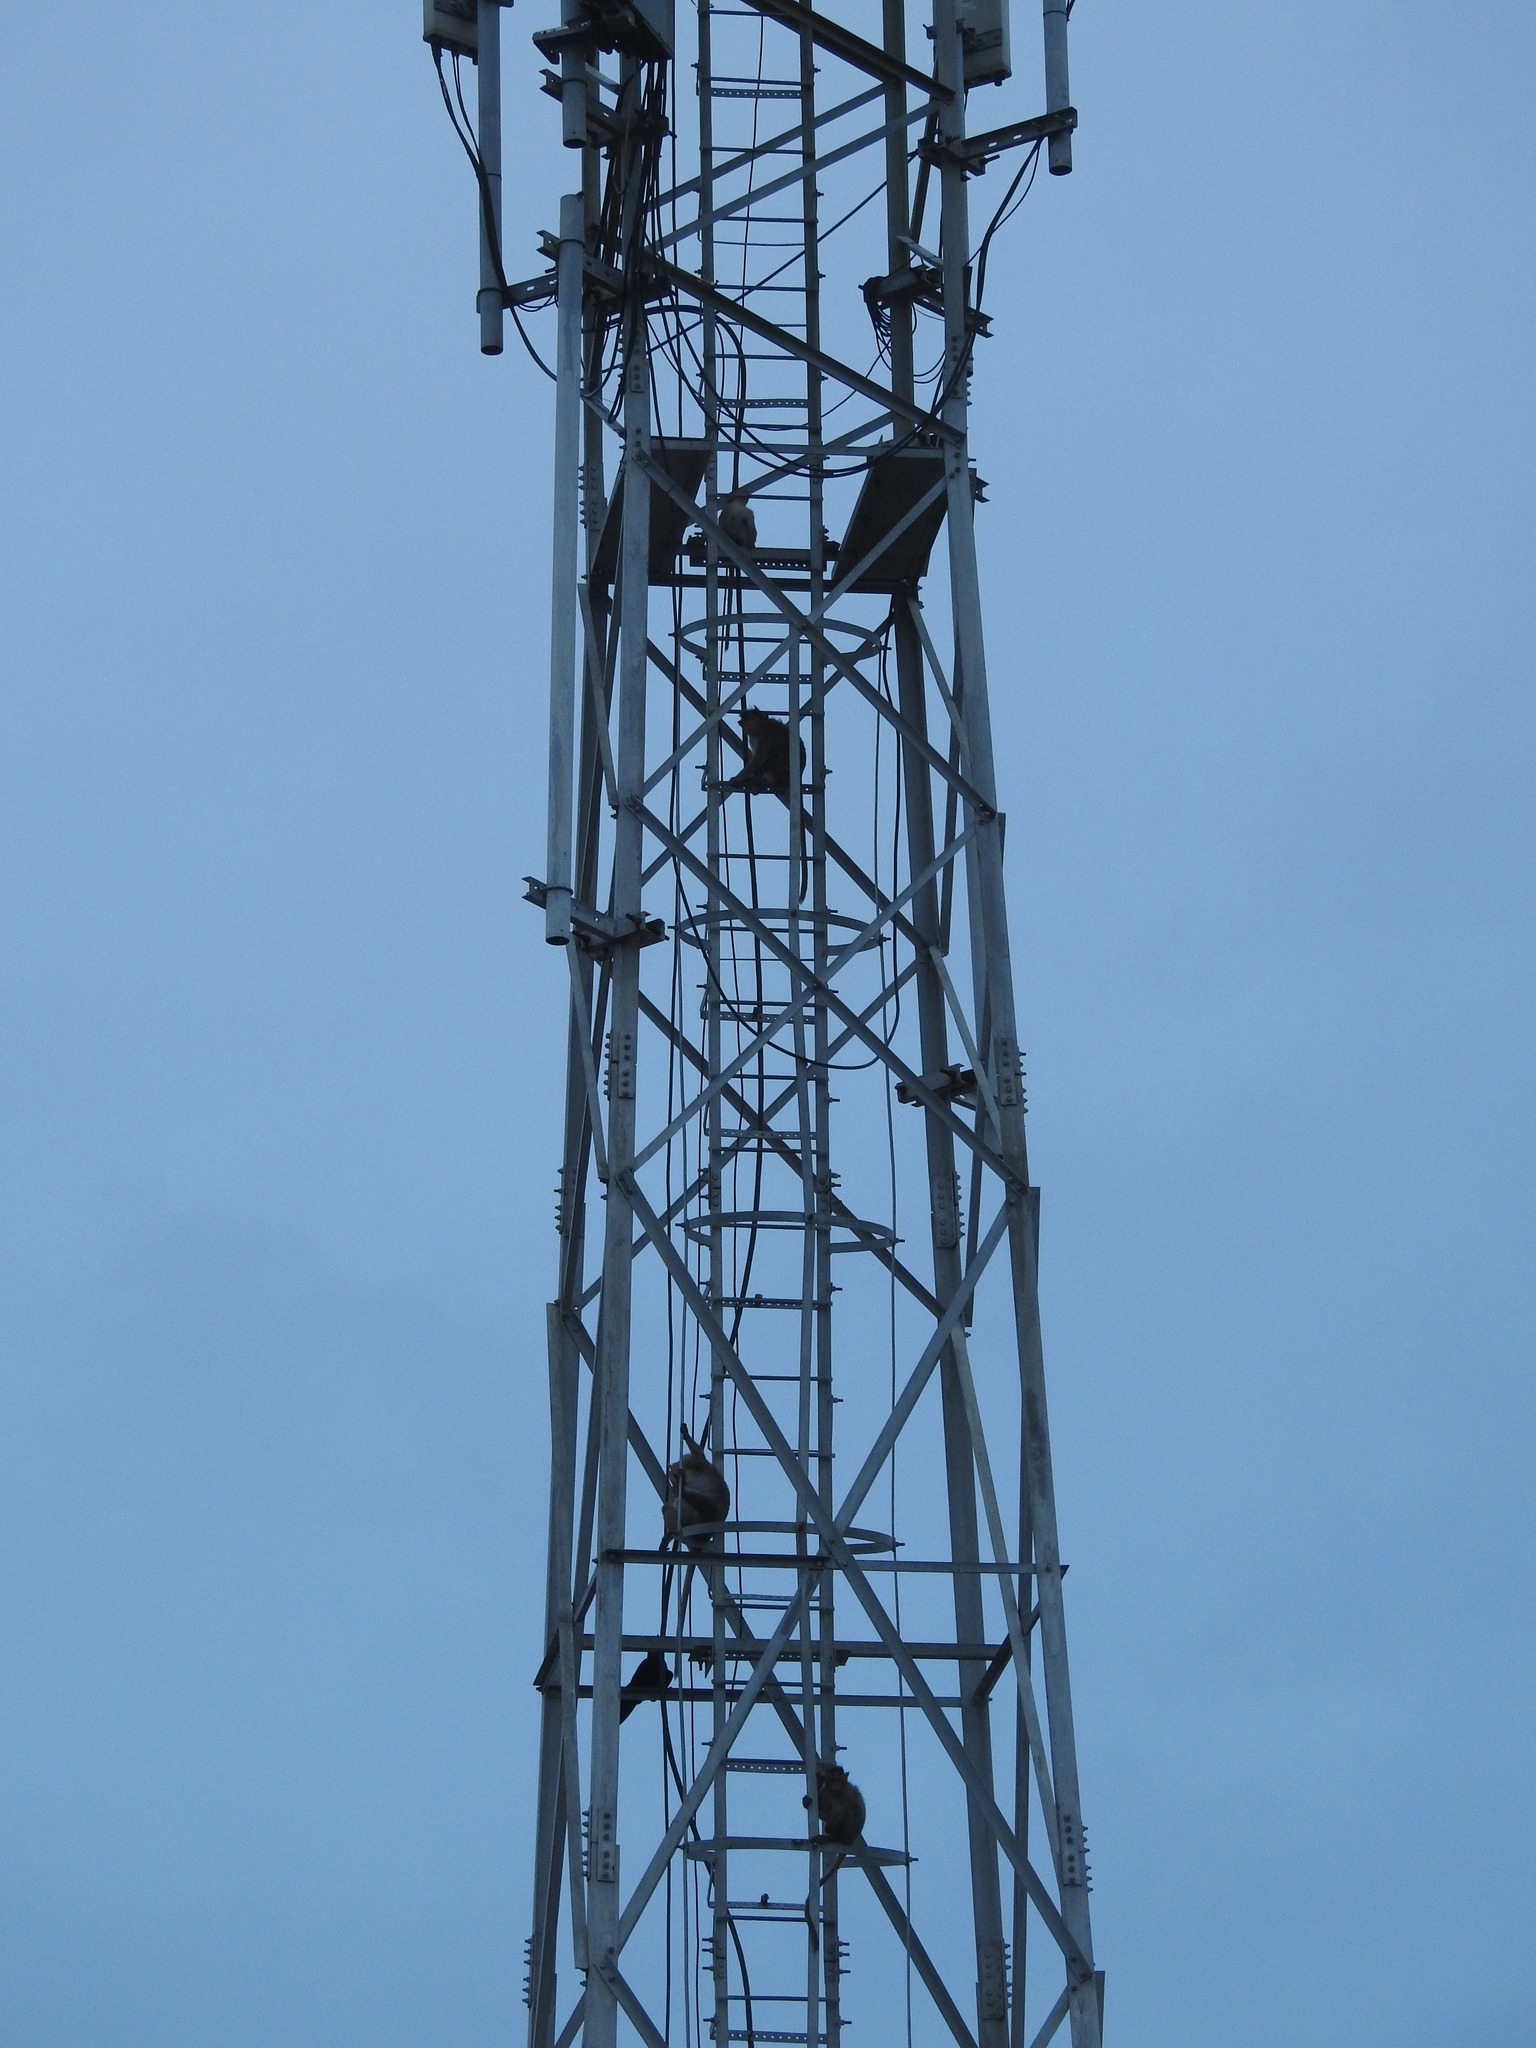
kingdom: Animalia
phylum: Chordata
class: Mammalia
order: Primates
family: Cercopithecidae
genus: Macaca
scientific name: Macaca radiata
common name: Bonnet macaque
